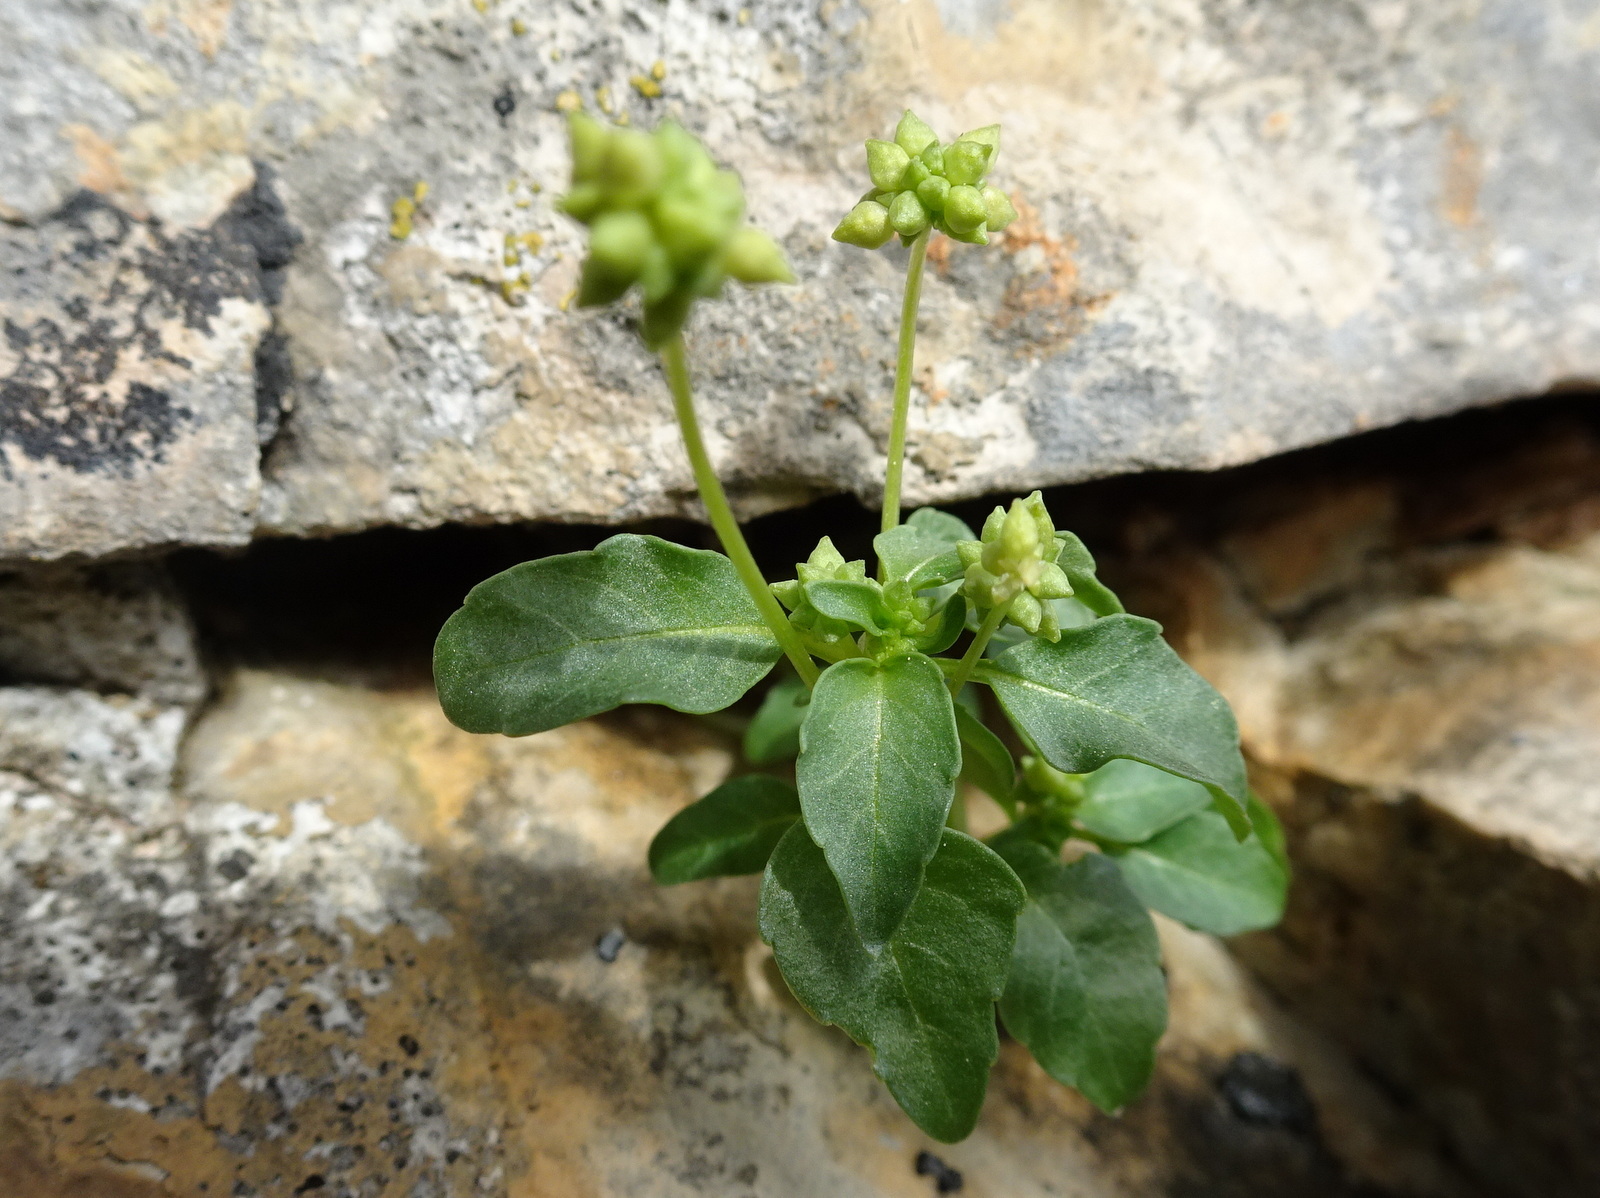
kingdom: Plantae
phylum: Tracheophyta
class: Magnoliopsida
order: Malpighiales
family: Euphorbiaceae
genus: Mercurialis
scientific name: Mercurialis annua
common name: Annual mercury
